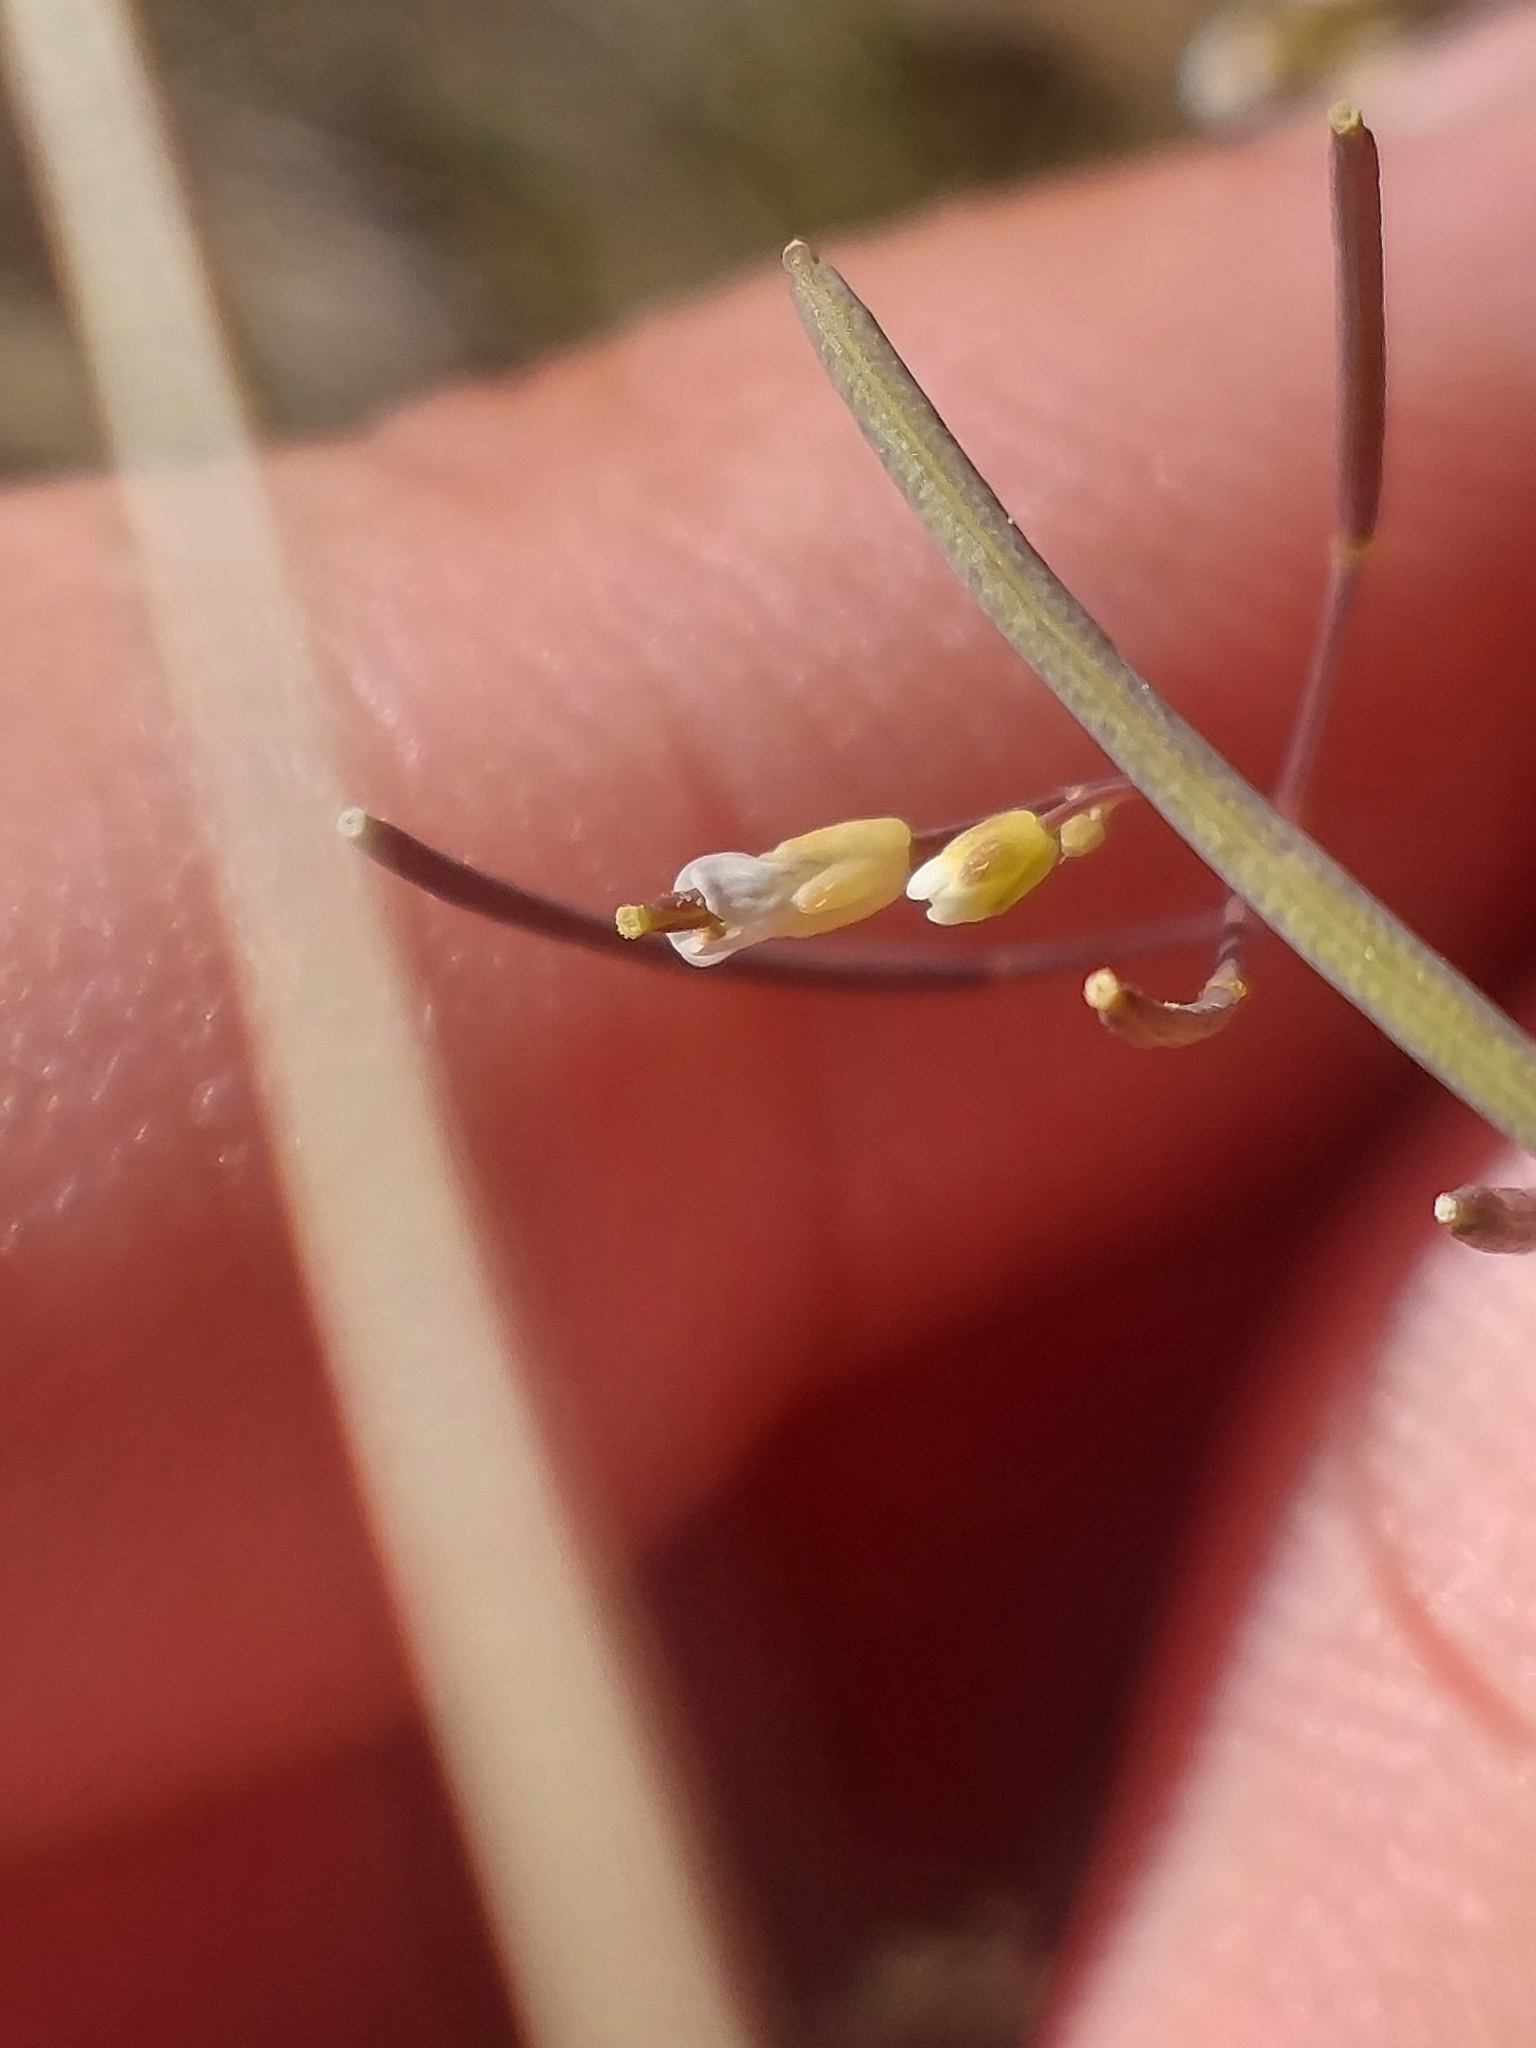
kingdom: Plantae
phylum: Tracheophyta
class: Magnoliopsida
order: Brassicales
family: Brassicaceae
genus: Arabidopsis
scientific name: Arabidopsis thaliana
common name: Thale cress
